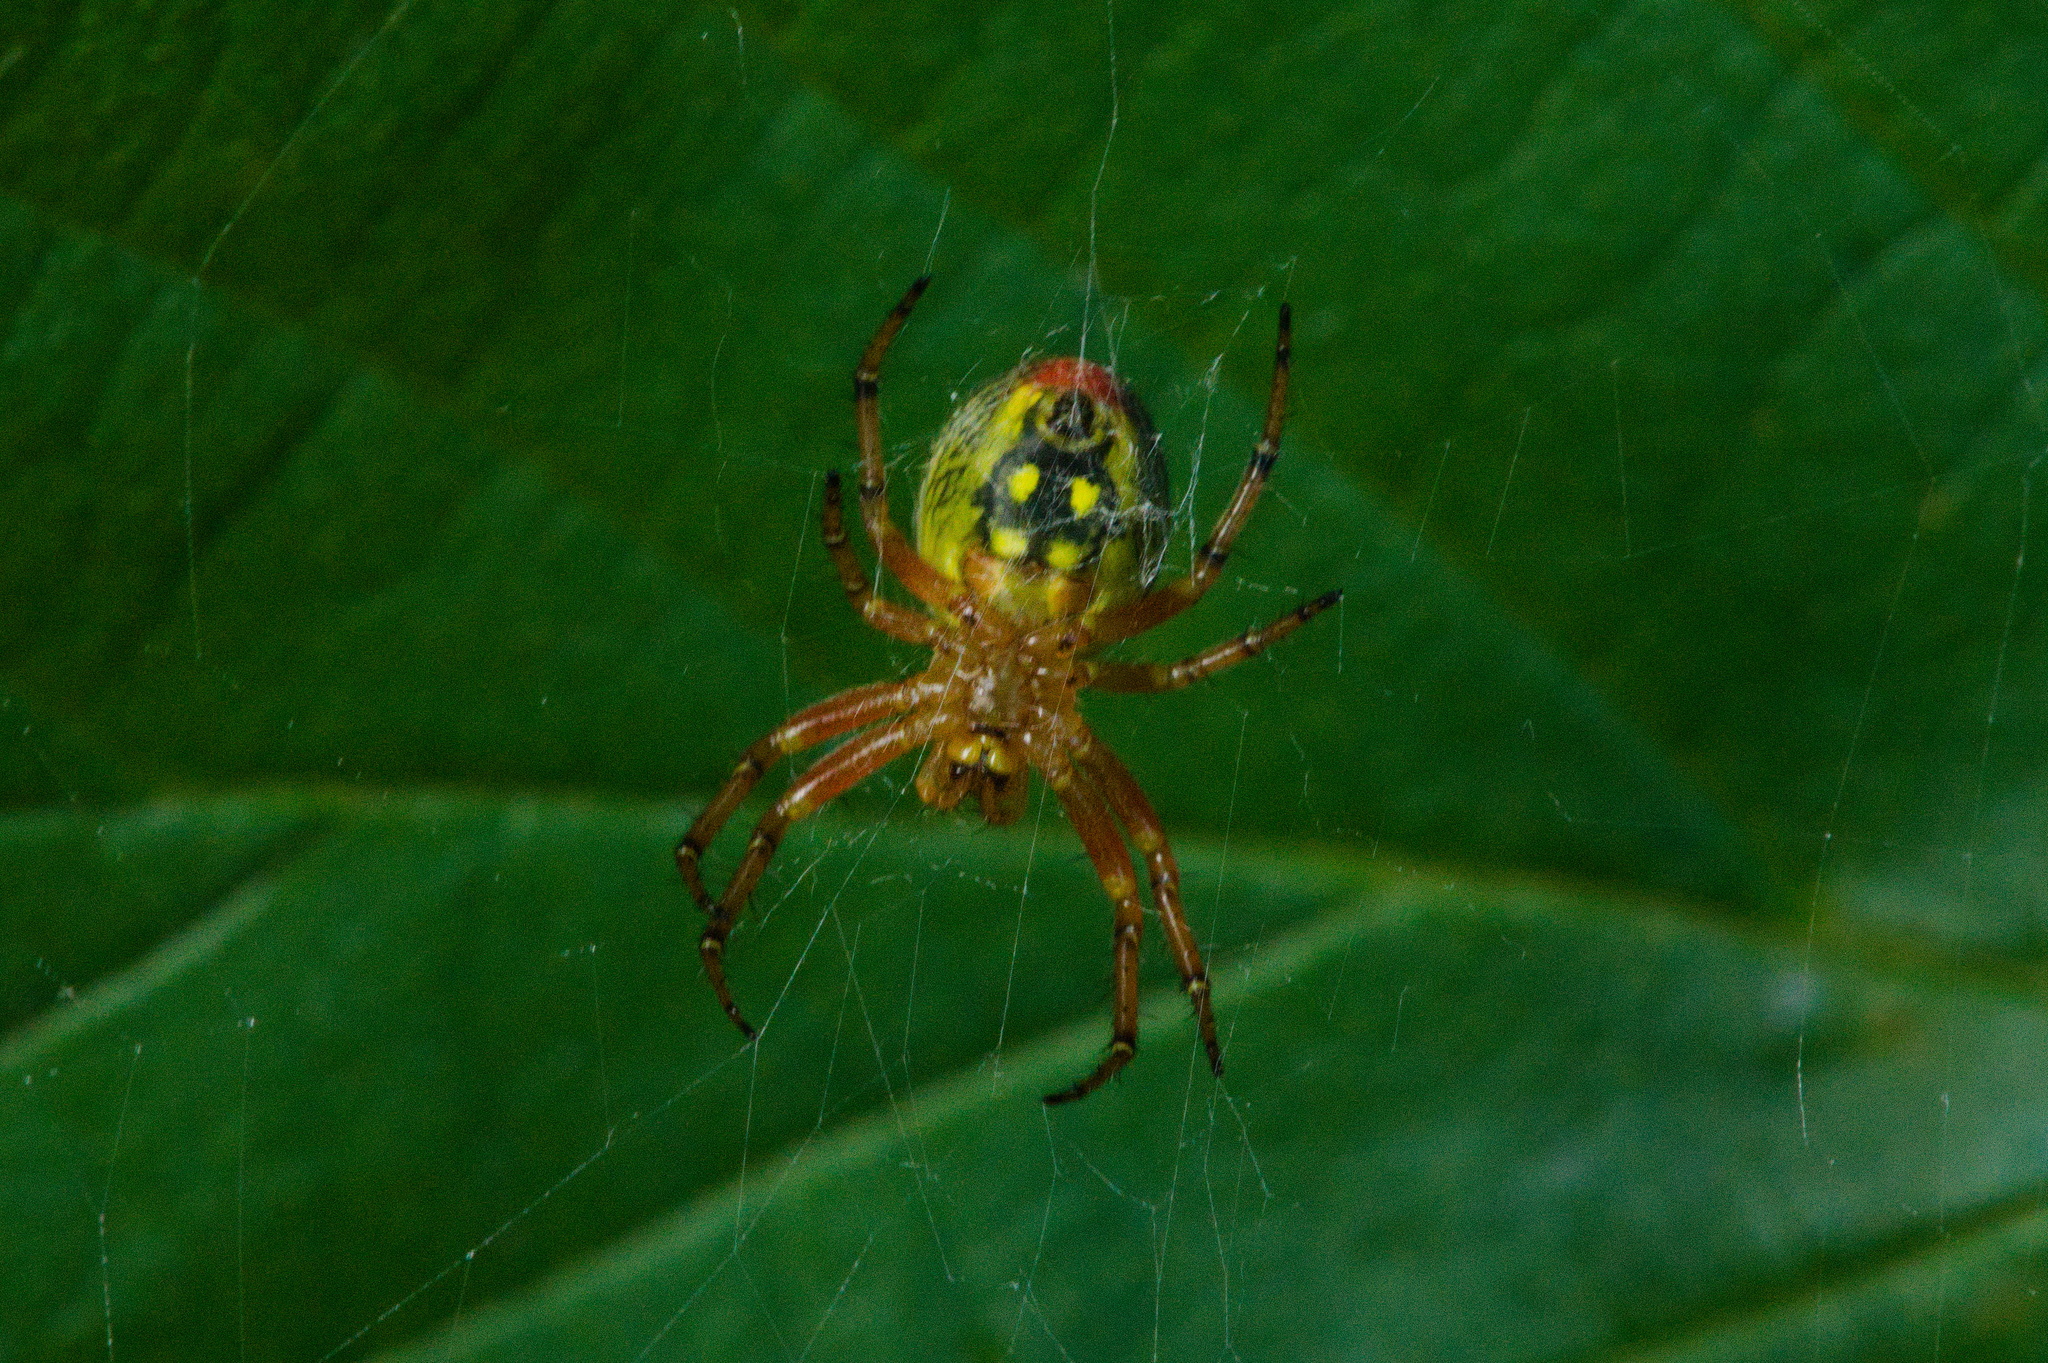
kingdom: Animalia
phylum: Arthropoda
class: Arachnida
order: Araneae
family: Araneidae
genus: Araniella
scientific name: Araniella alpica
